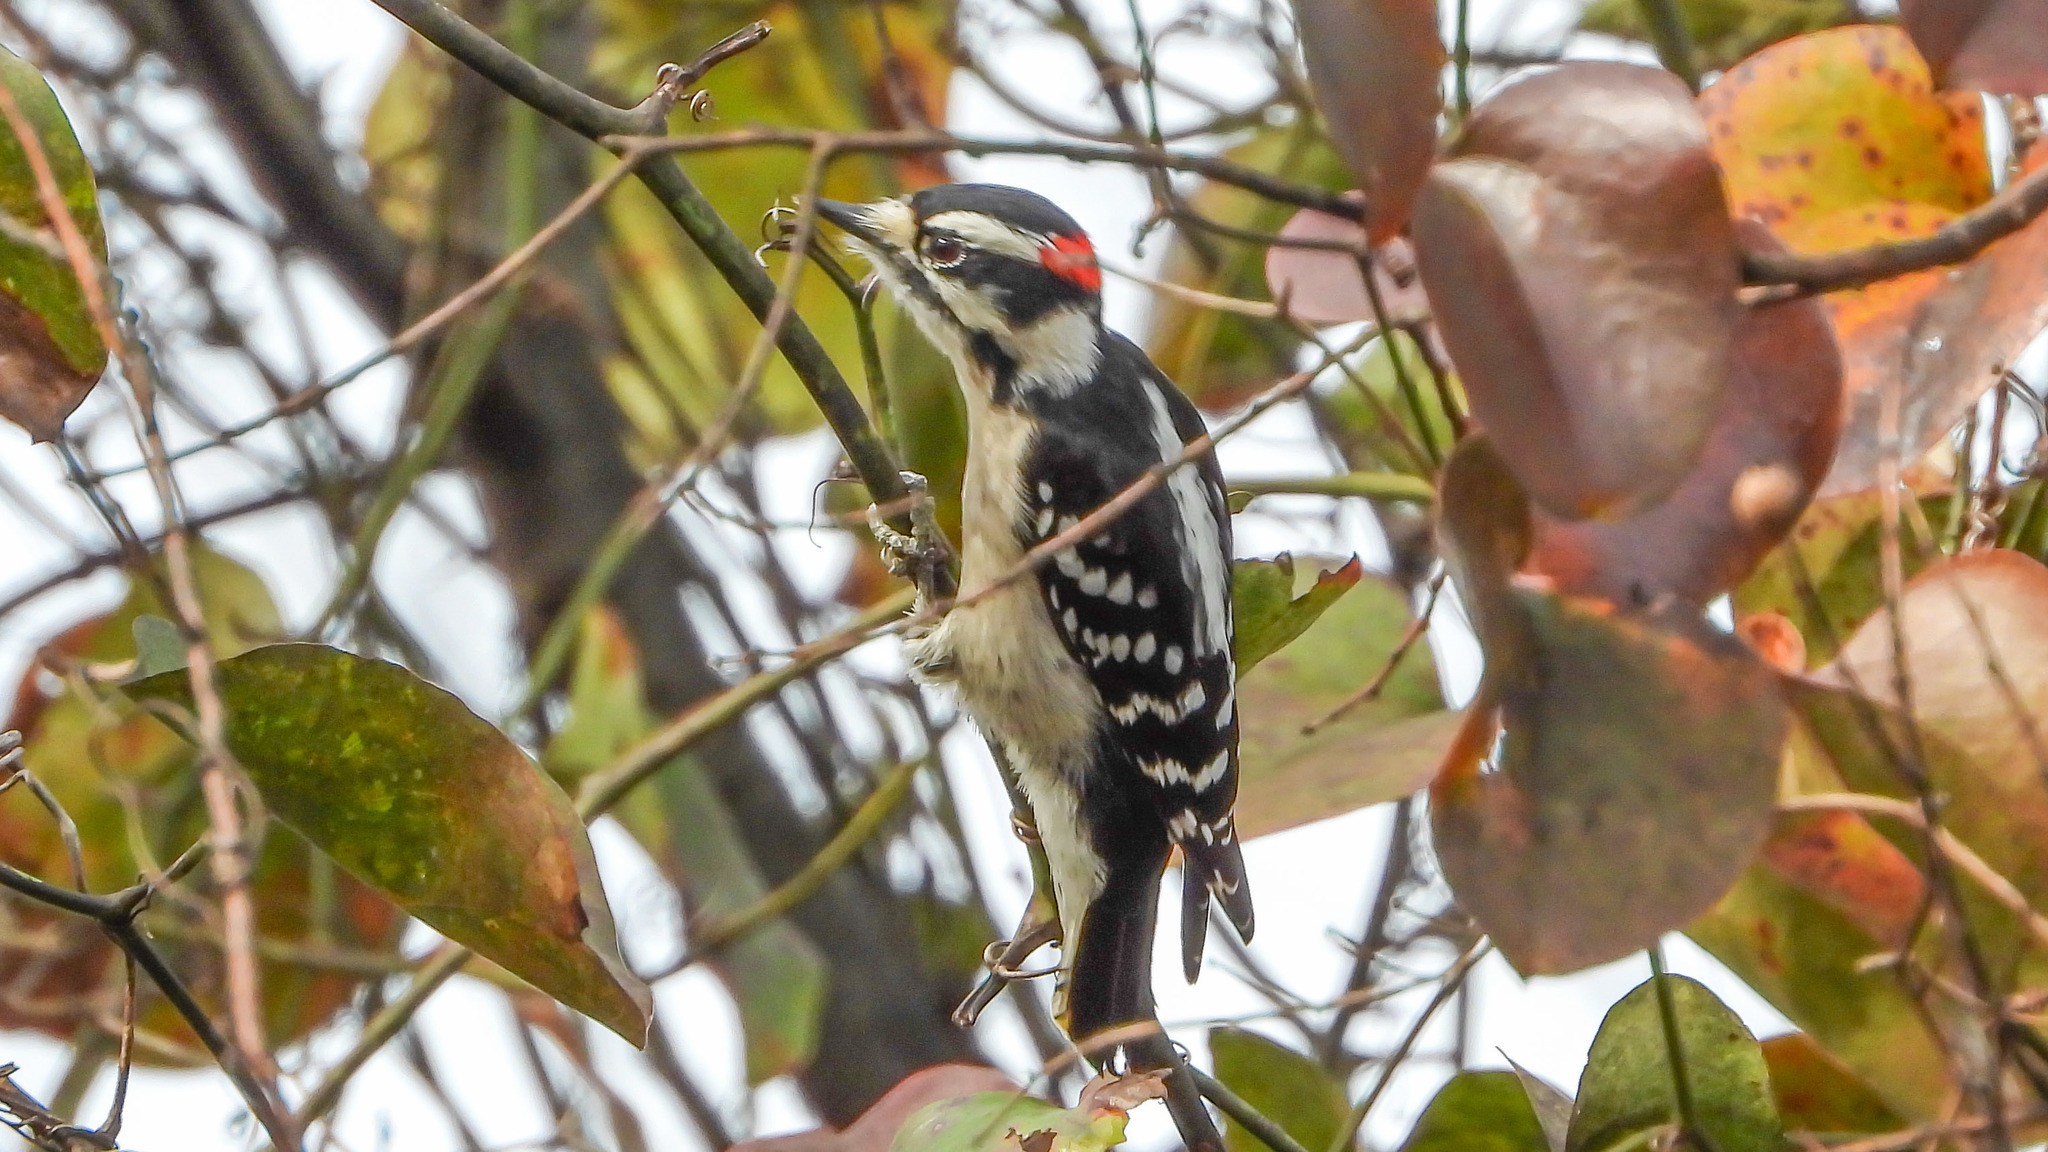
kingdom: Animalia
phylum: Chordata
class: Aves
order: Piciformes
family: Picidae
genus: Dryobates
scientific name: Dryobates pubescens
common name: Downy woodpecker
